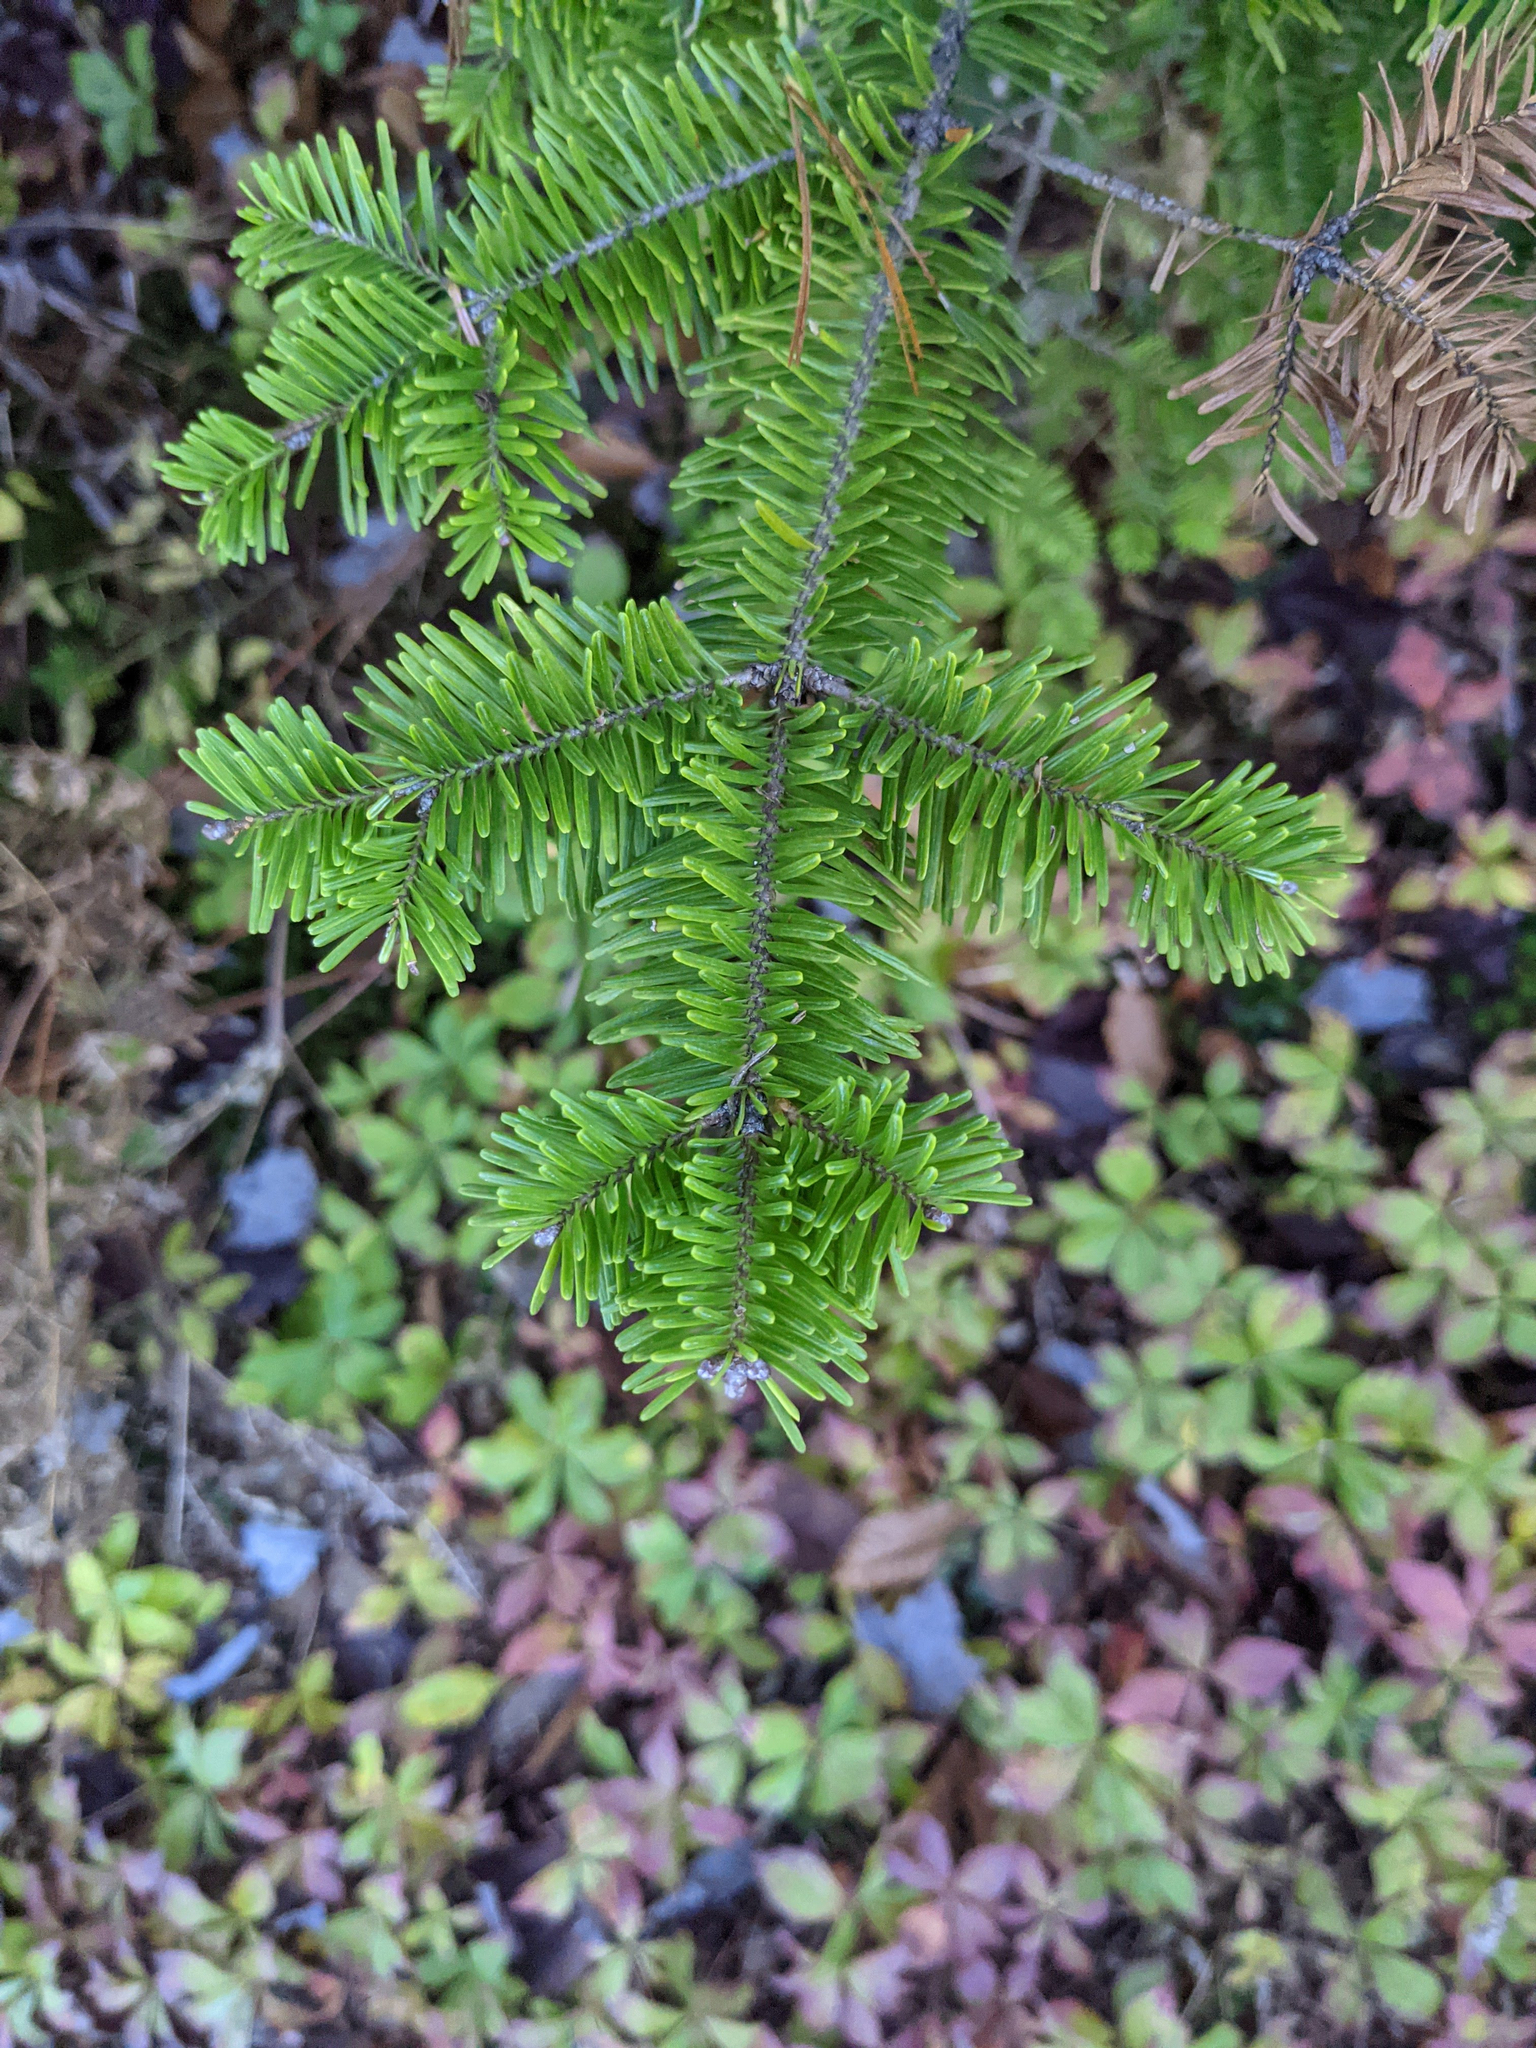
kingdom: Plantae
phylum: Tracheophyta
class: Pinopsida
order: Pinales
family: Pinaceae
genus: Abies
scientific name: Abies balsamea
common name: Balsam fir
